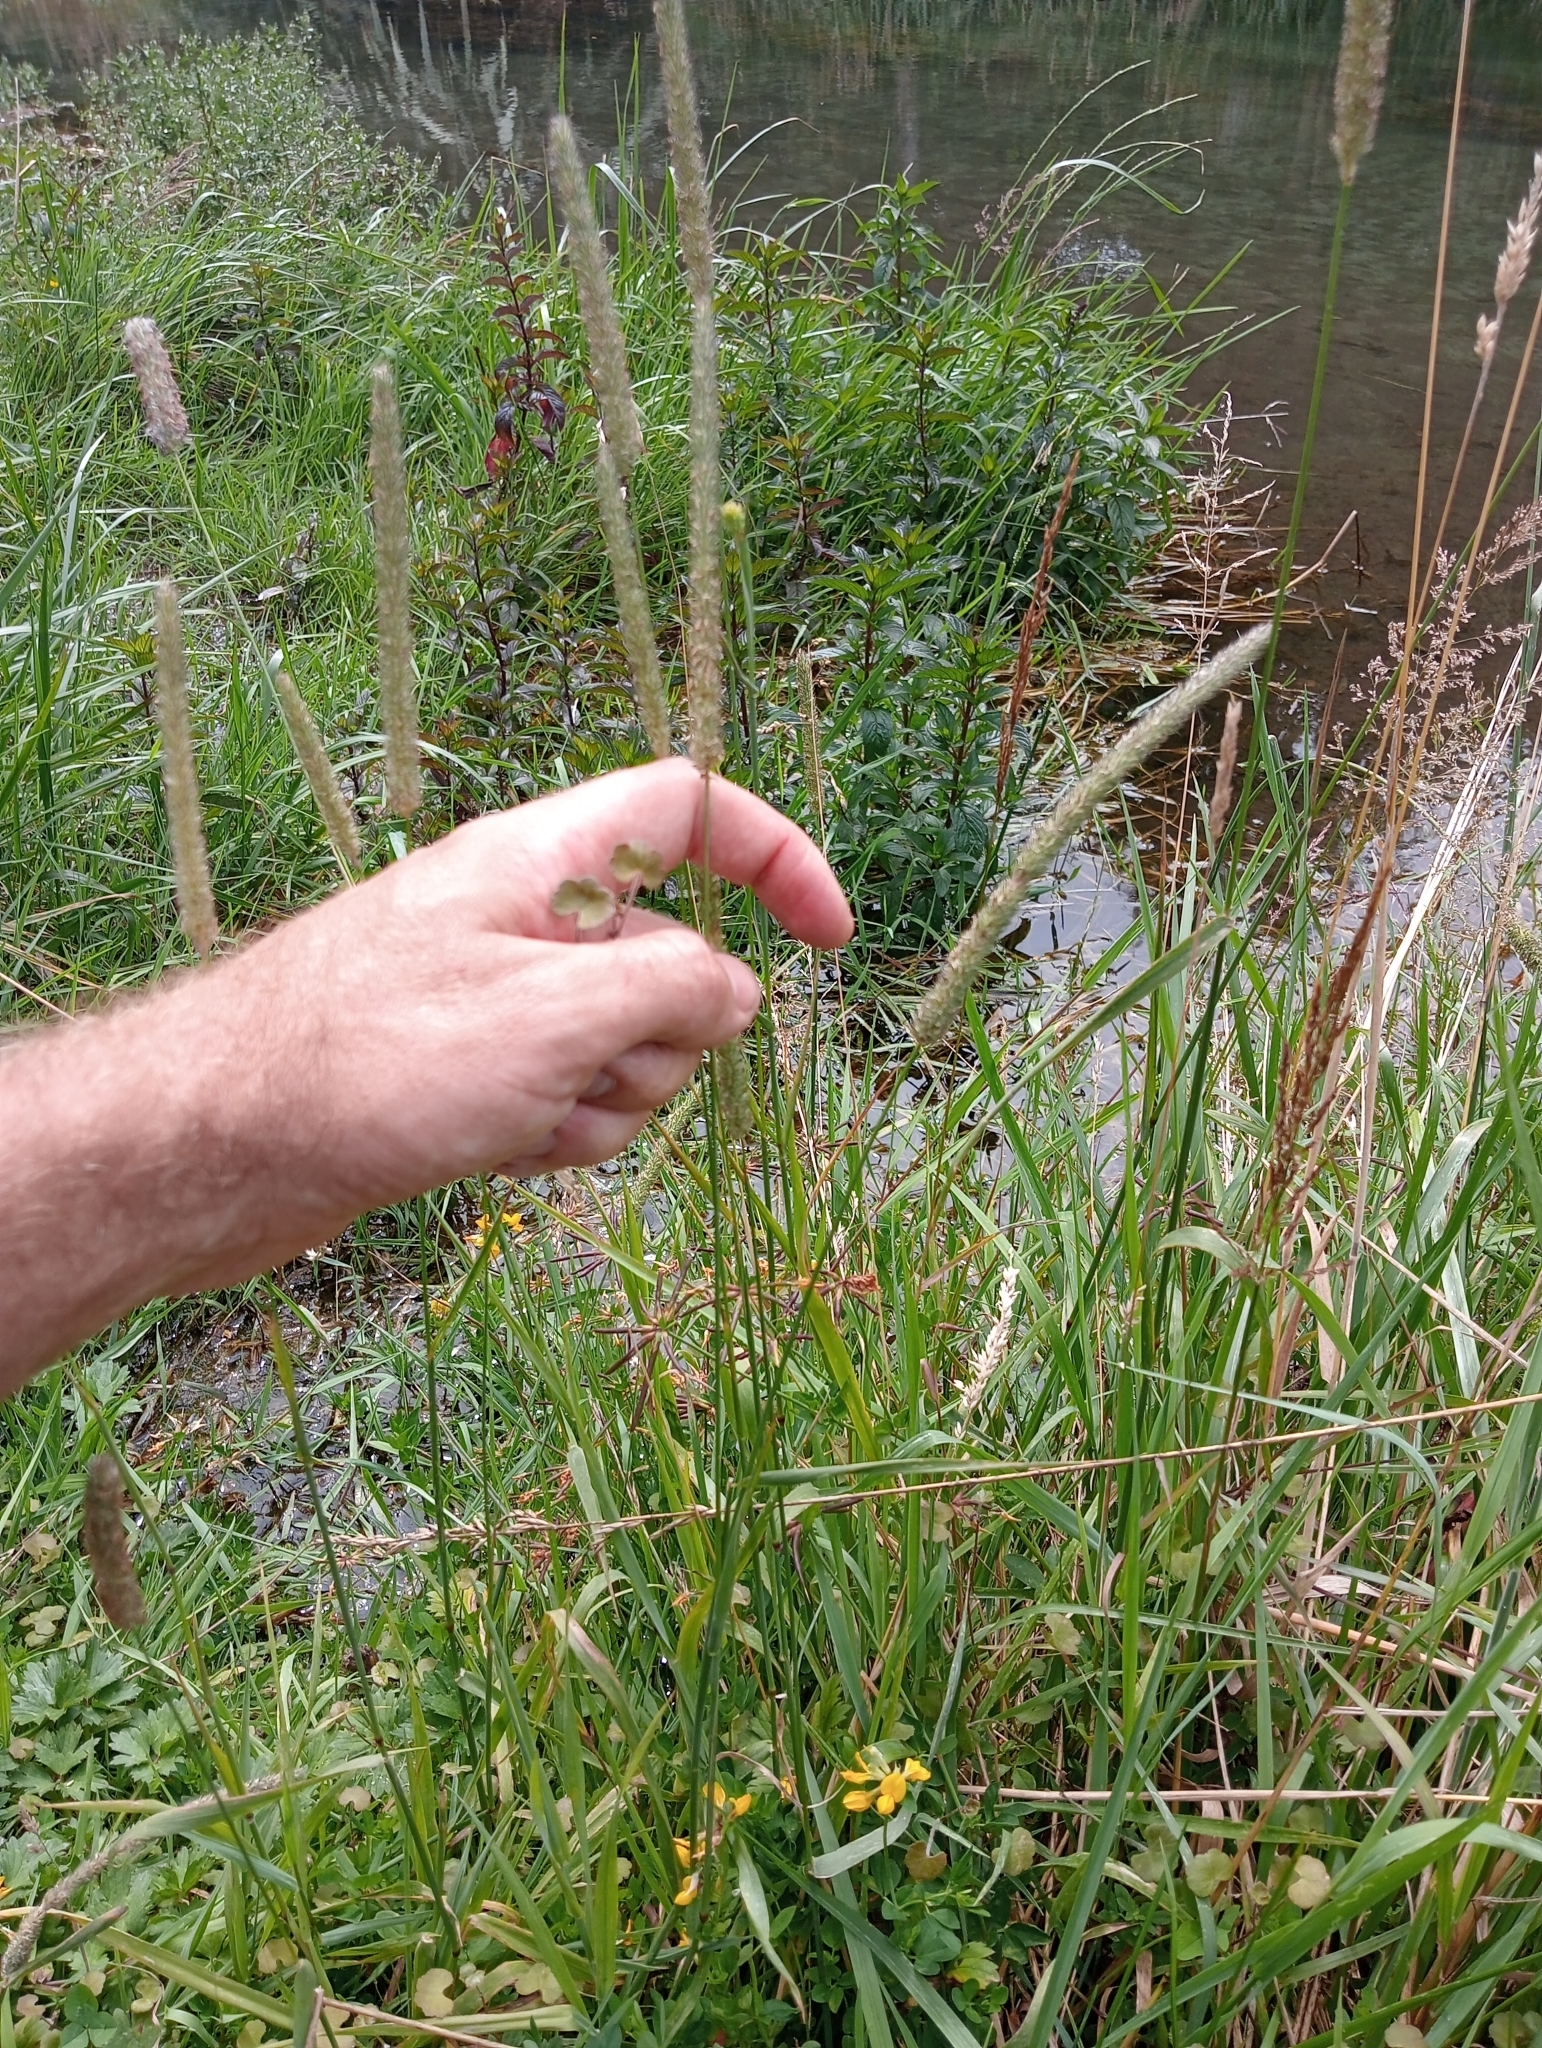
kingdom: Plantae
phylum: Tracheophyta
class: Liliopsida
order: Poales
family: Poaceae
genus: Phleum
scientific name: Phleum pratense
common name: Timothy grass
